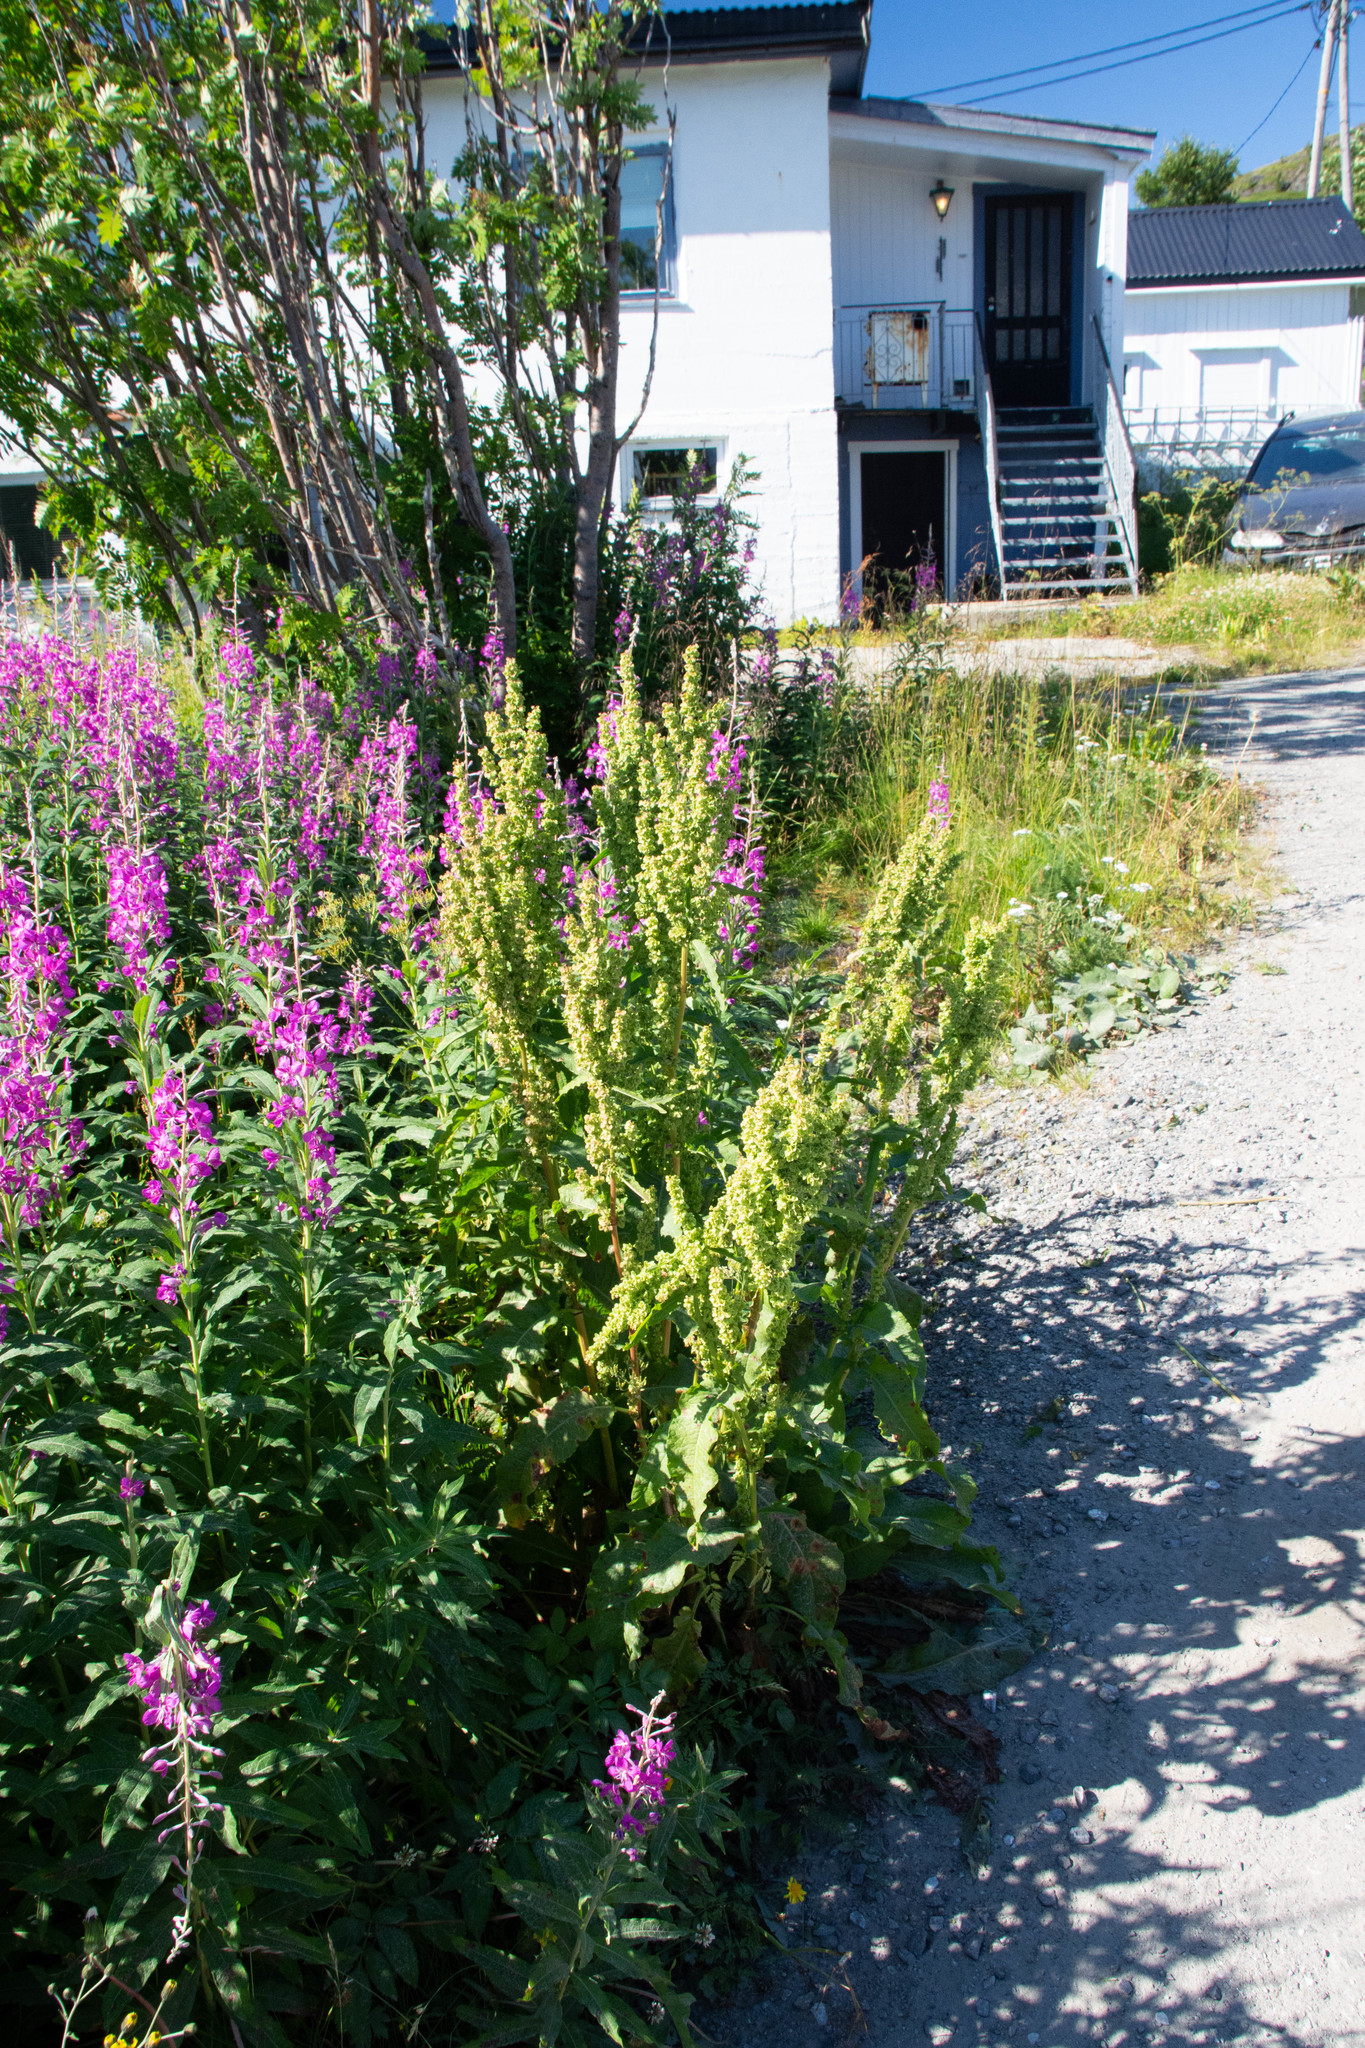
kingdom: Plantae
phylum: Tracheophyta
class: Magnoliopsida
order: Myrtales
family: Onagraceae
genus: Chamaenerion
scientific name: Chamaenerion angustifolium
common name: Fireweed
